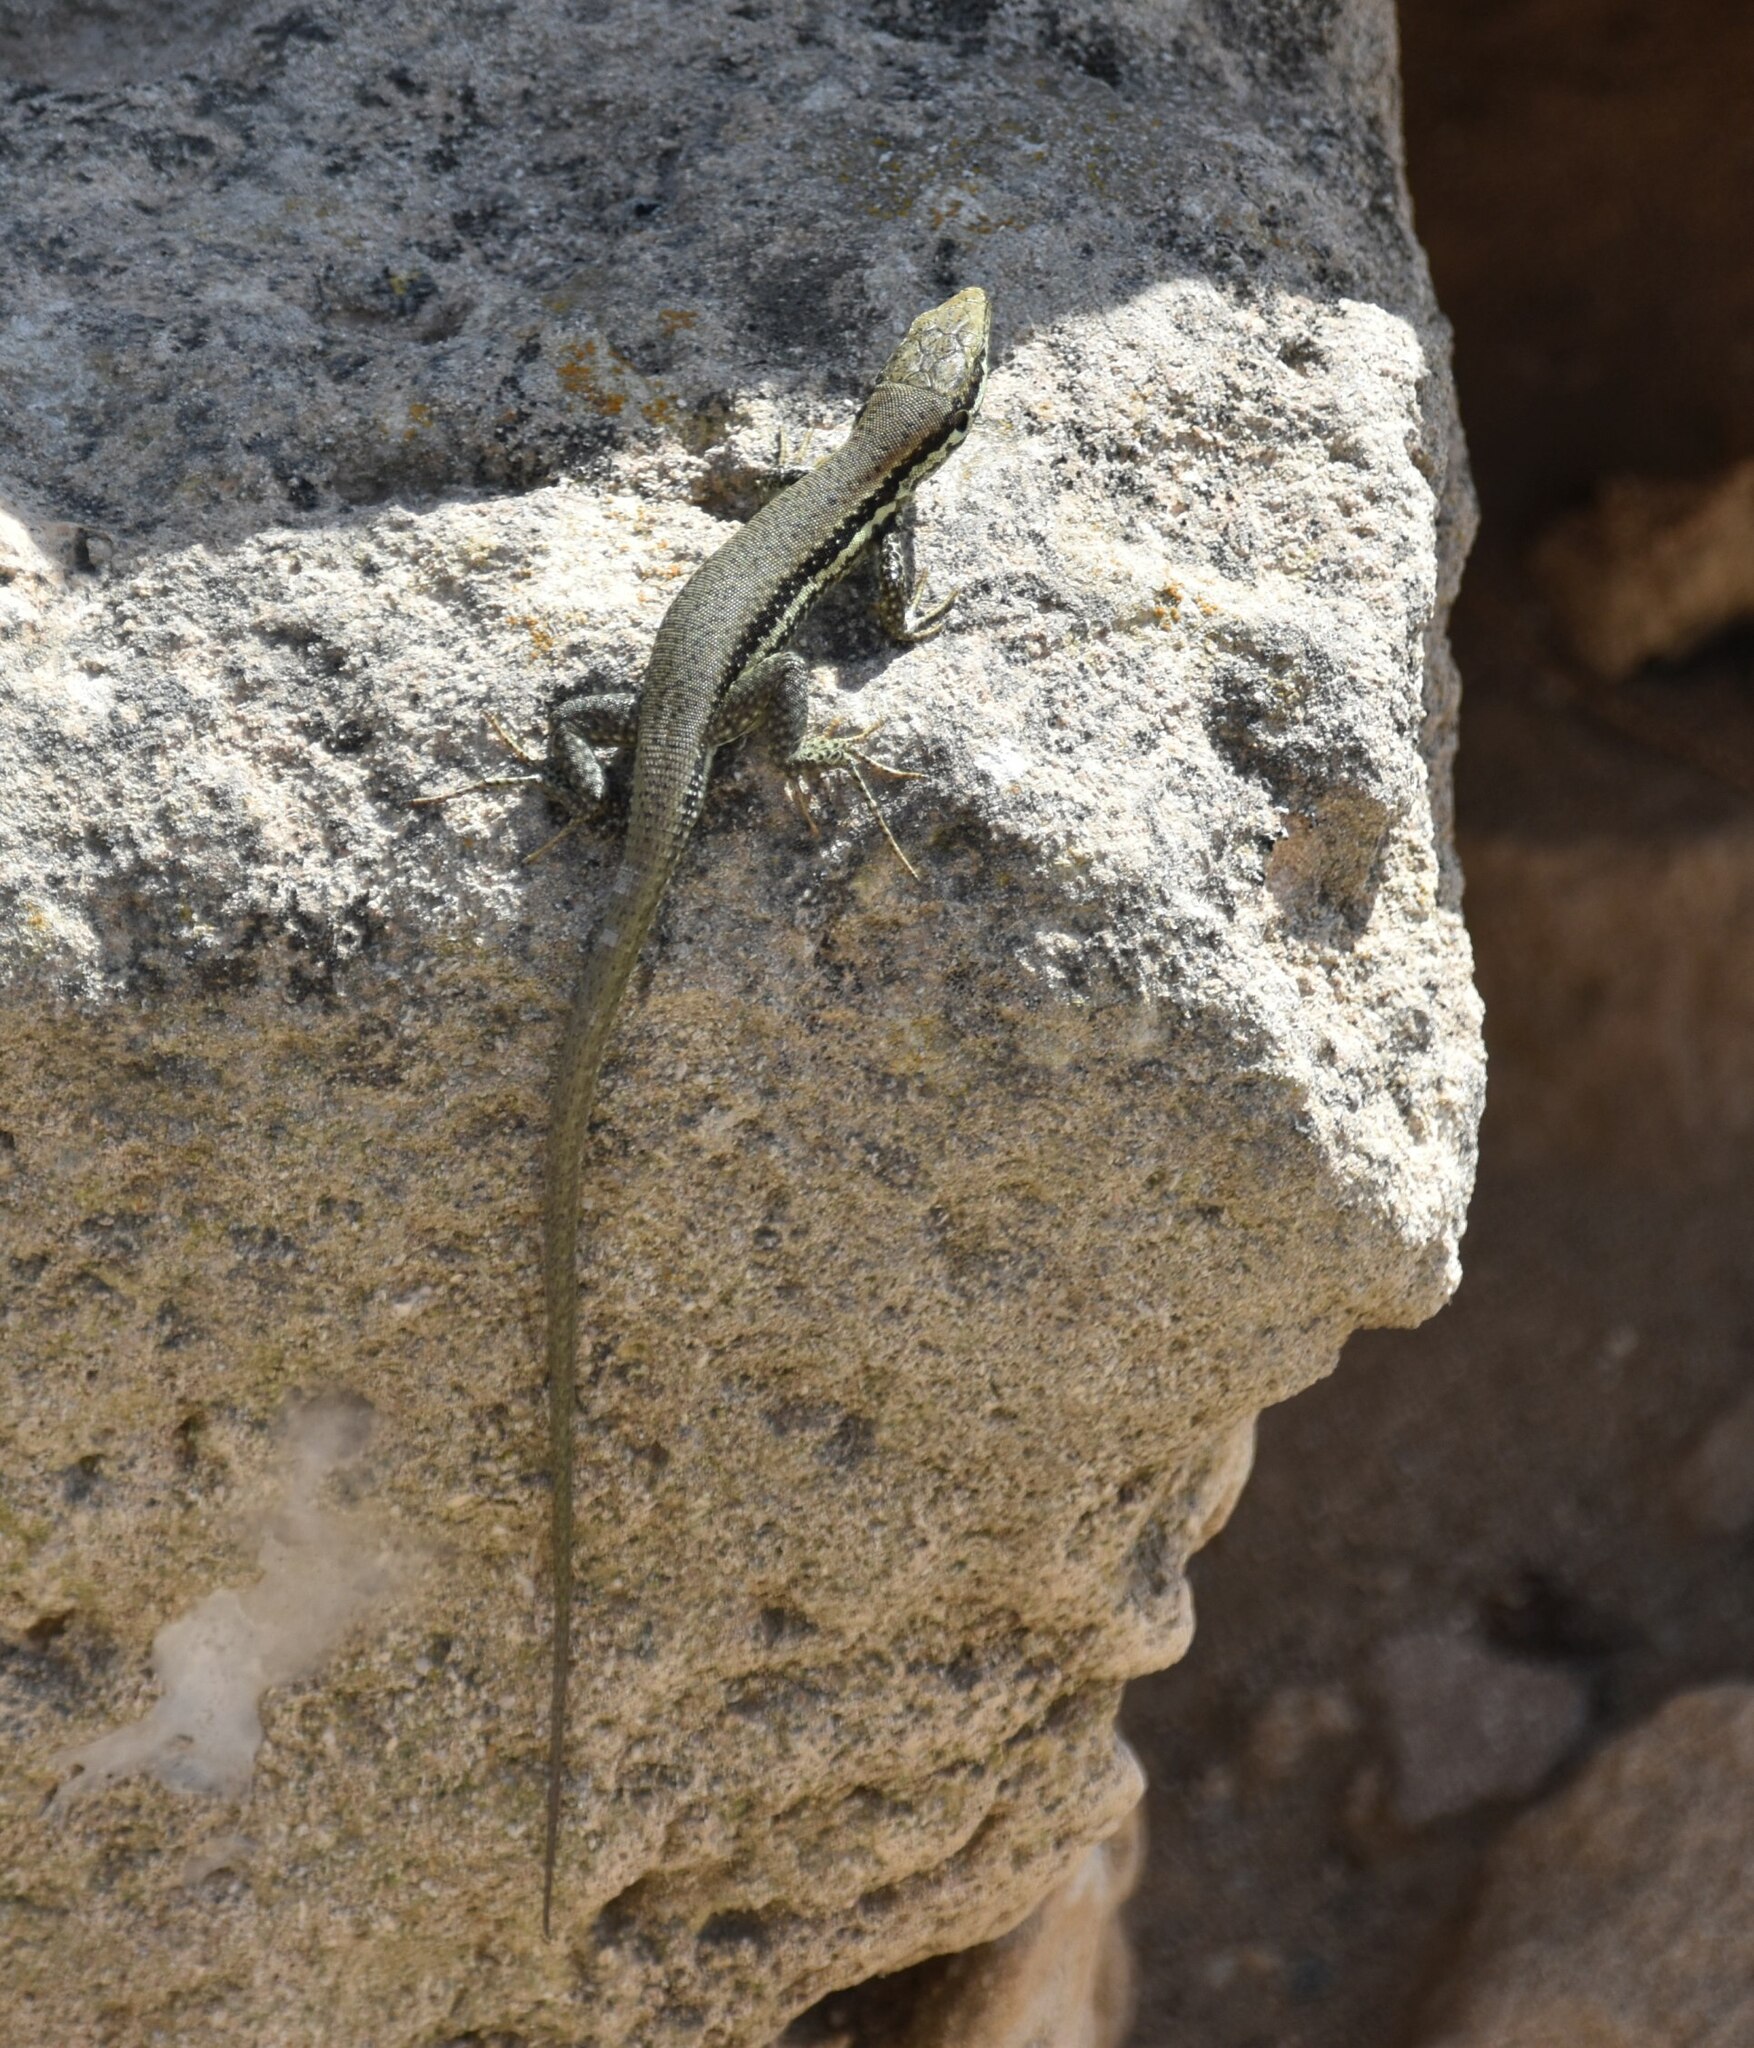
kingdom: Animalia
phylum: Chordata
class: Squamata
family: Lacertidae
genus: Phoenicolacerta
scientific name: Phoenicolacerta troodica
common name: Troodos wall lizard
